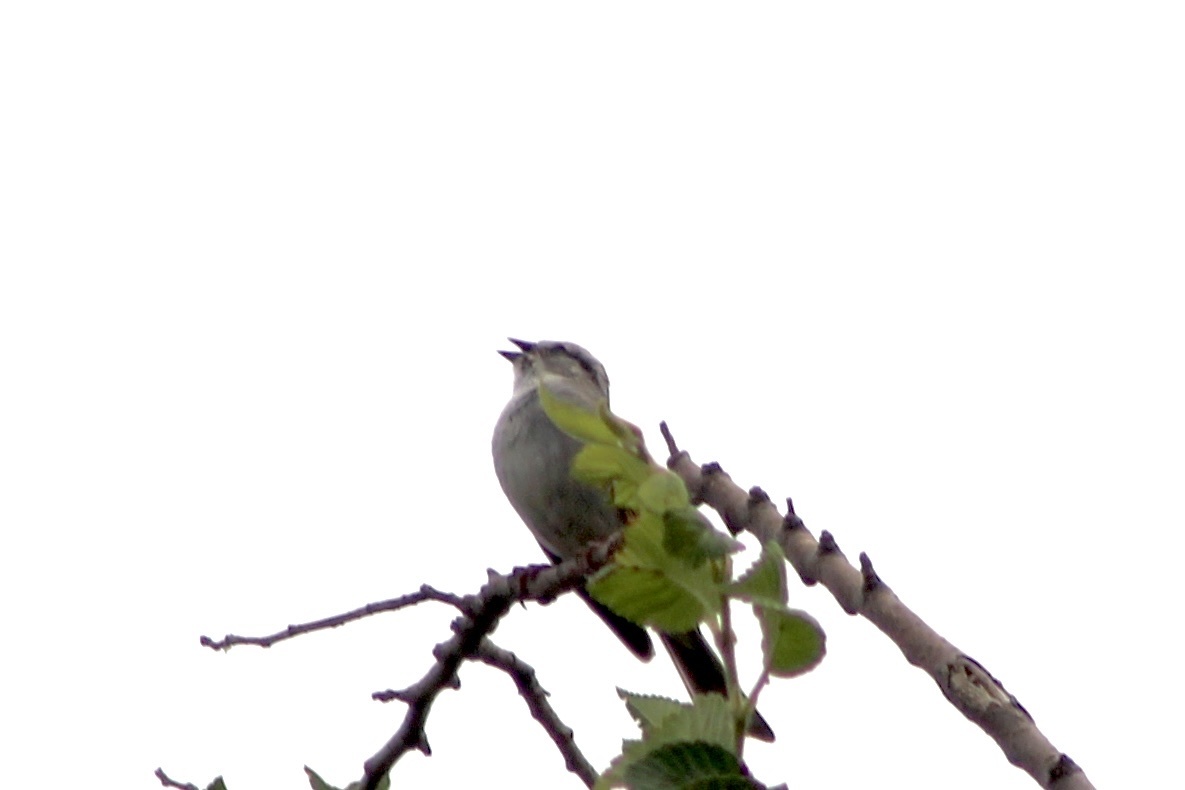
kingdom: Animalia
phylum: Chordata
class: Aves
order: Passeriformes
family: Passerellidae
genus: Spizella
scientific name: Spizella passerina
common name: Chipping sparrow
